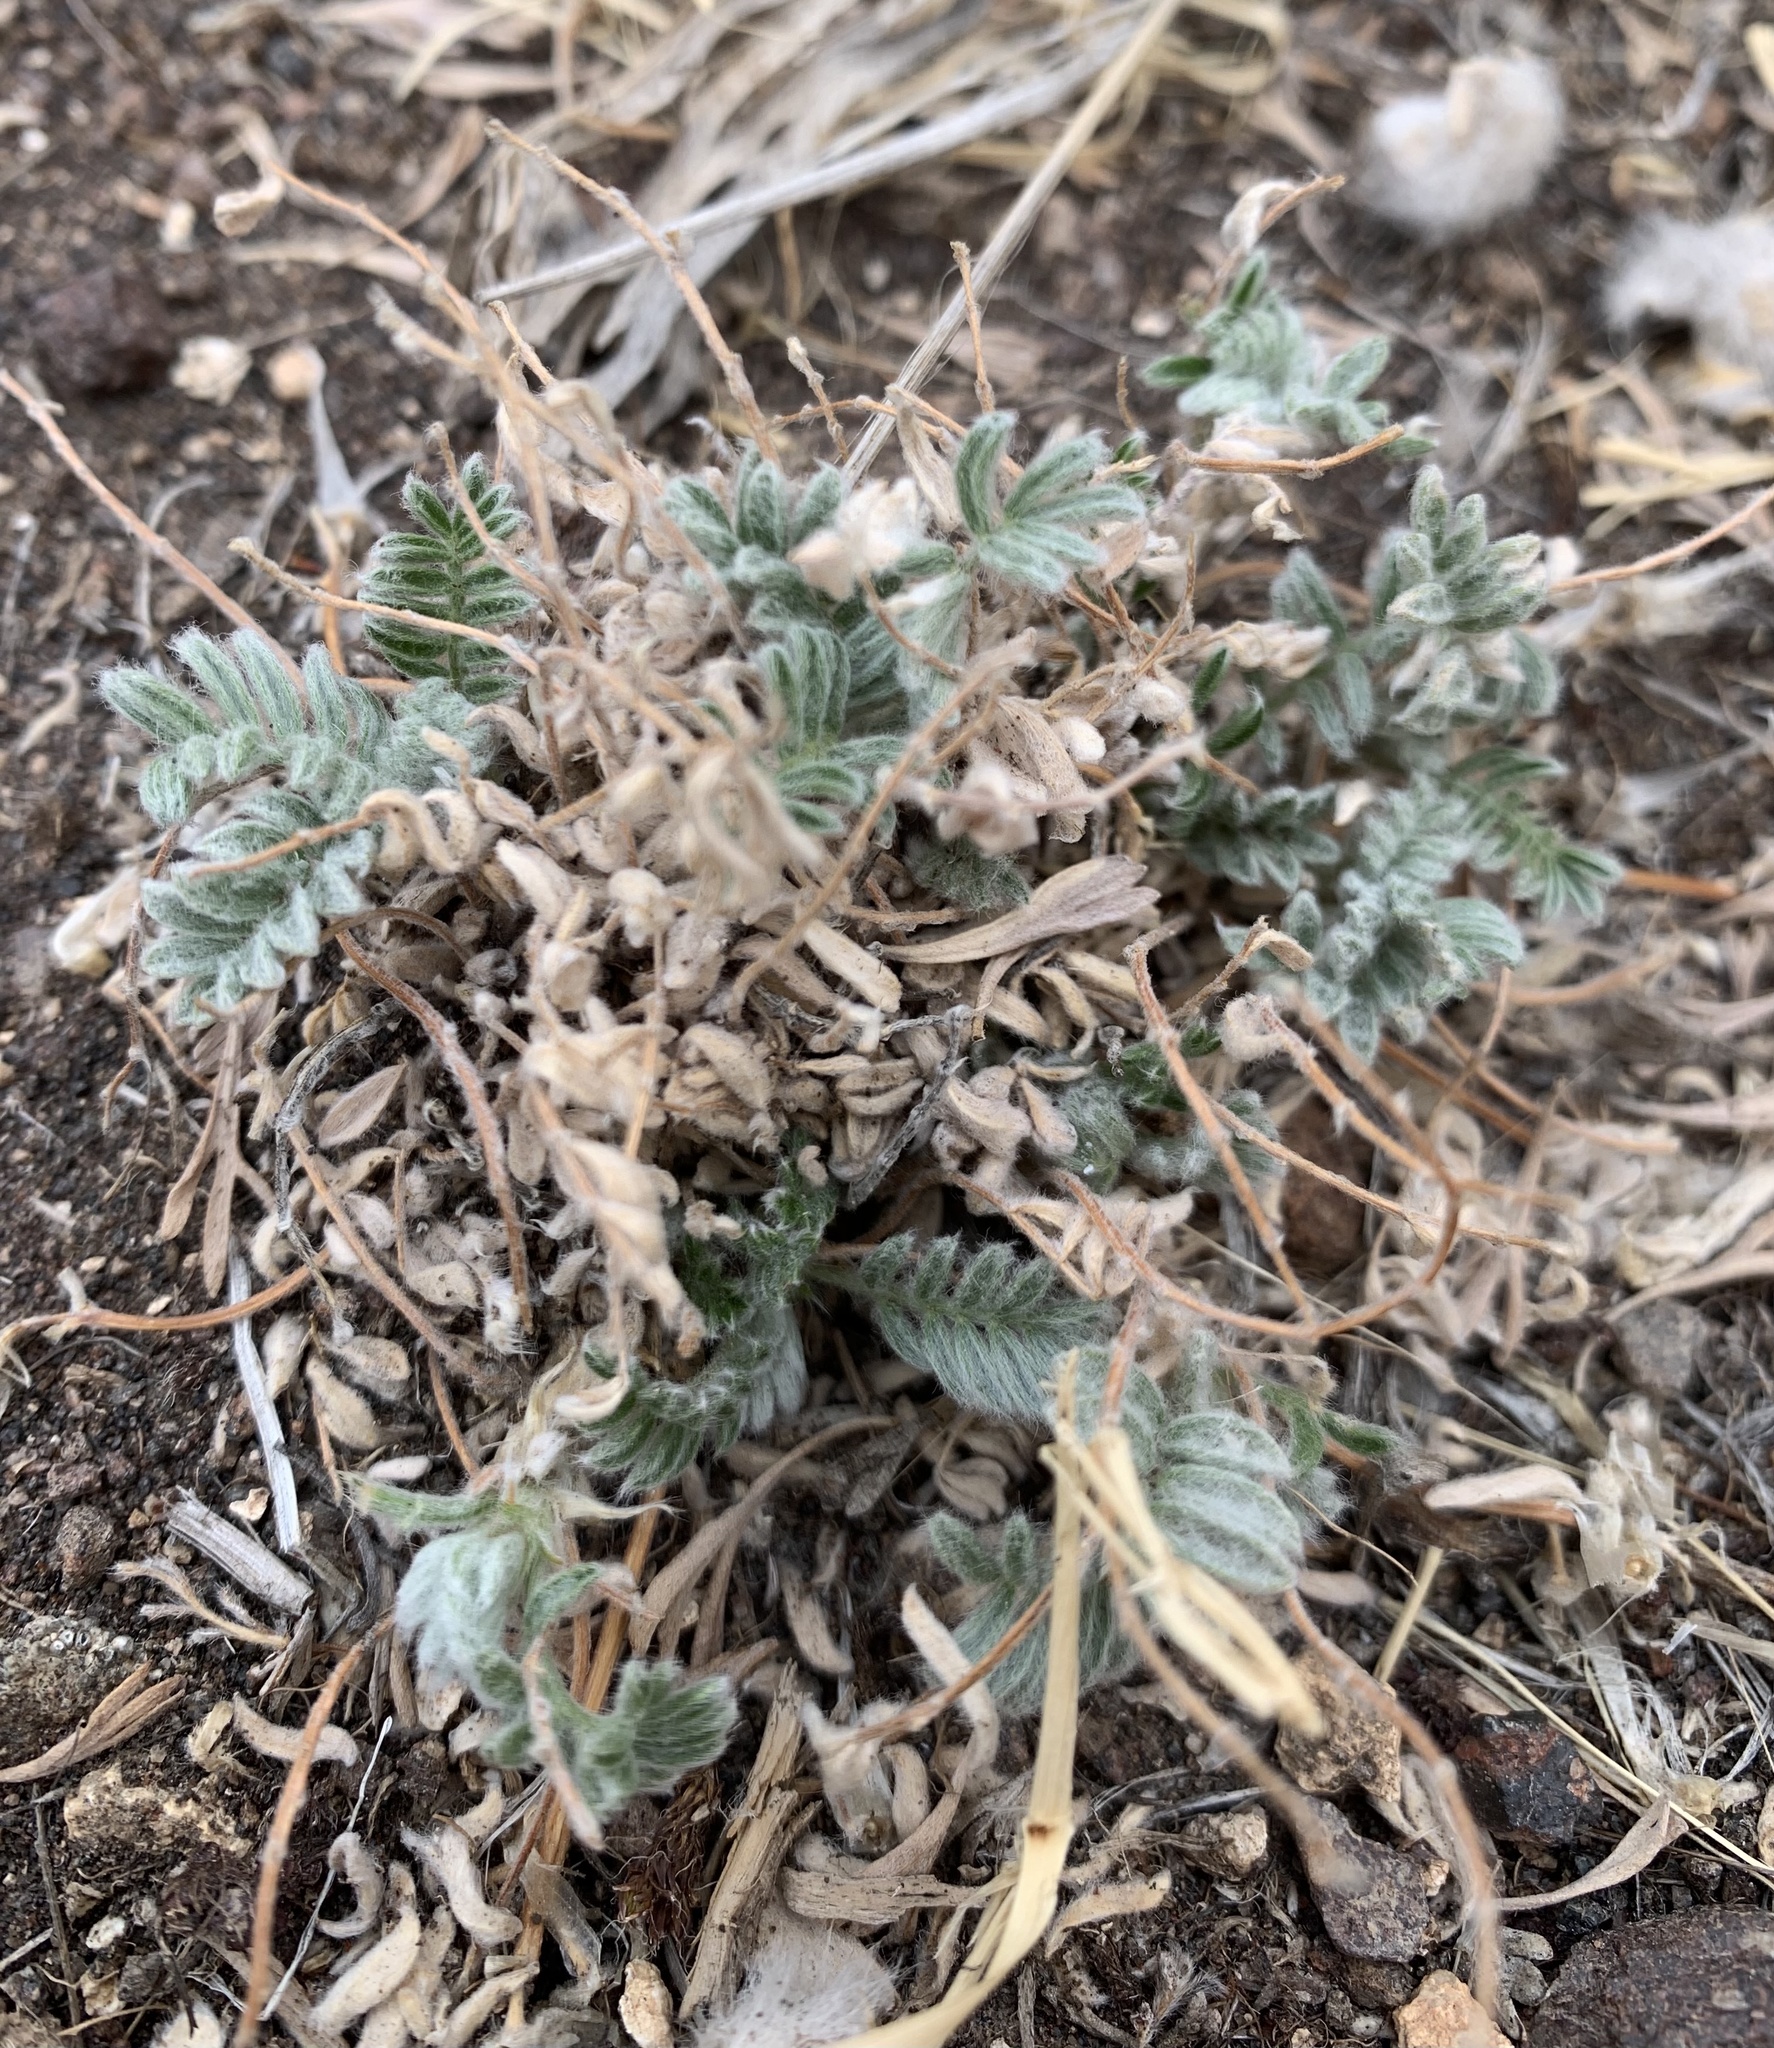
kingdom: Plantae
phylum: Tracheophyta
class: Magnoliopsida
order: Fabales
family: Fabaceae
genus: Astragalus
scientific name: Astragalus purshii
